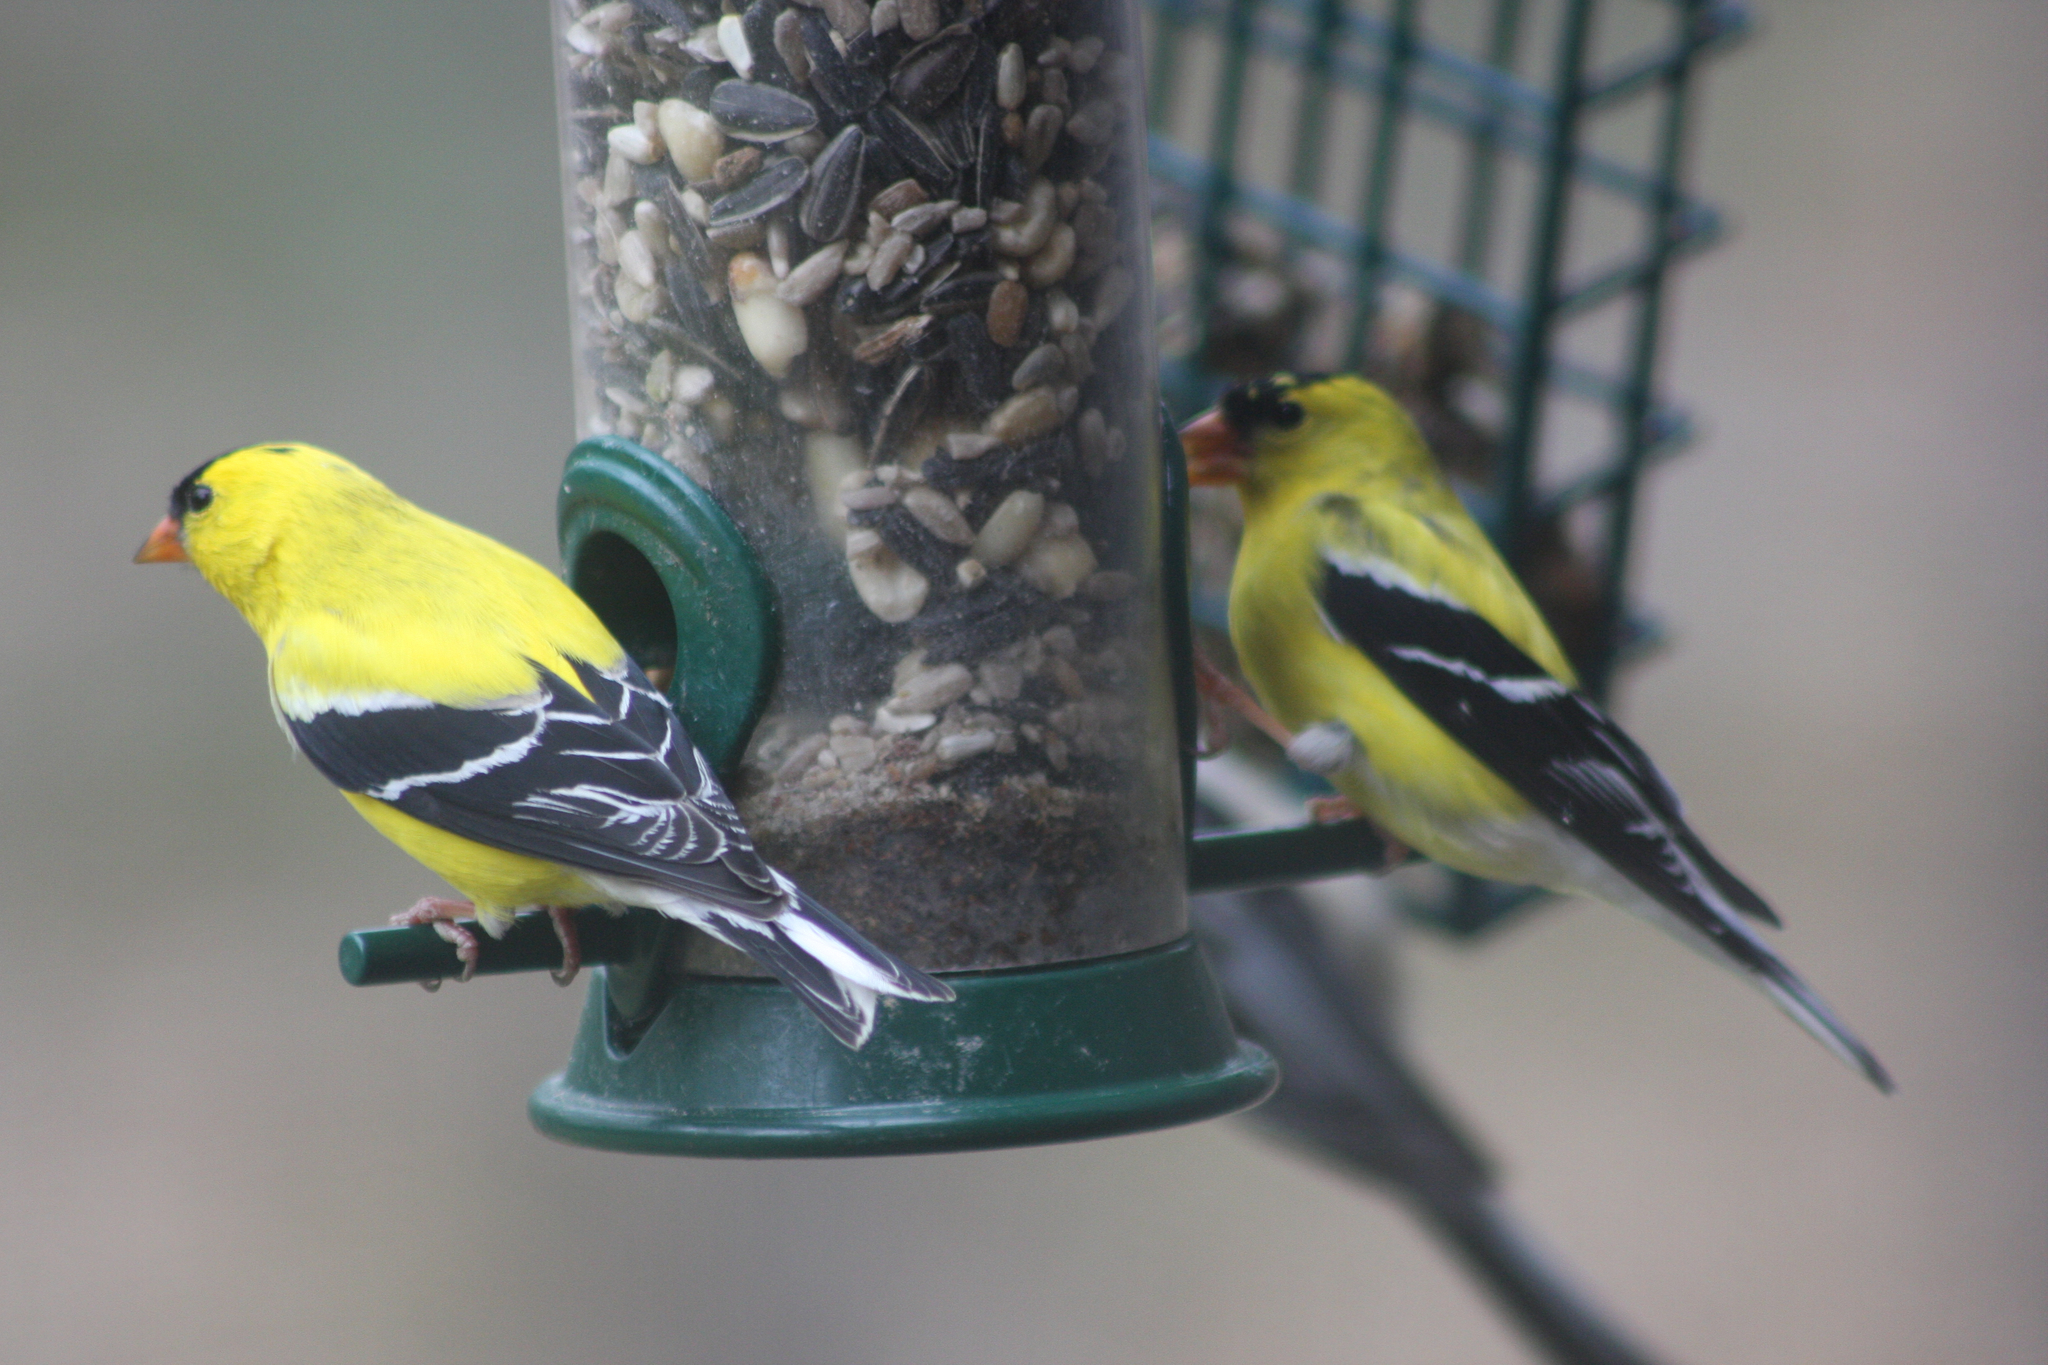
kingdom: Animalia
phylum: Chordata
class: Aves
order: Passeriformes
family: Fringillidae
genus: Spinus
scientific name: Spinus tristis
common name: American goldfinch
